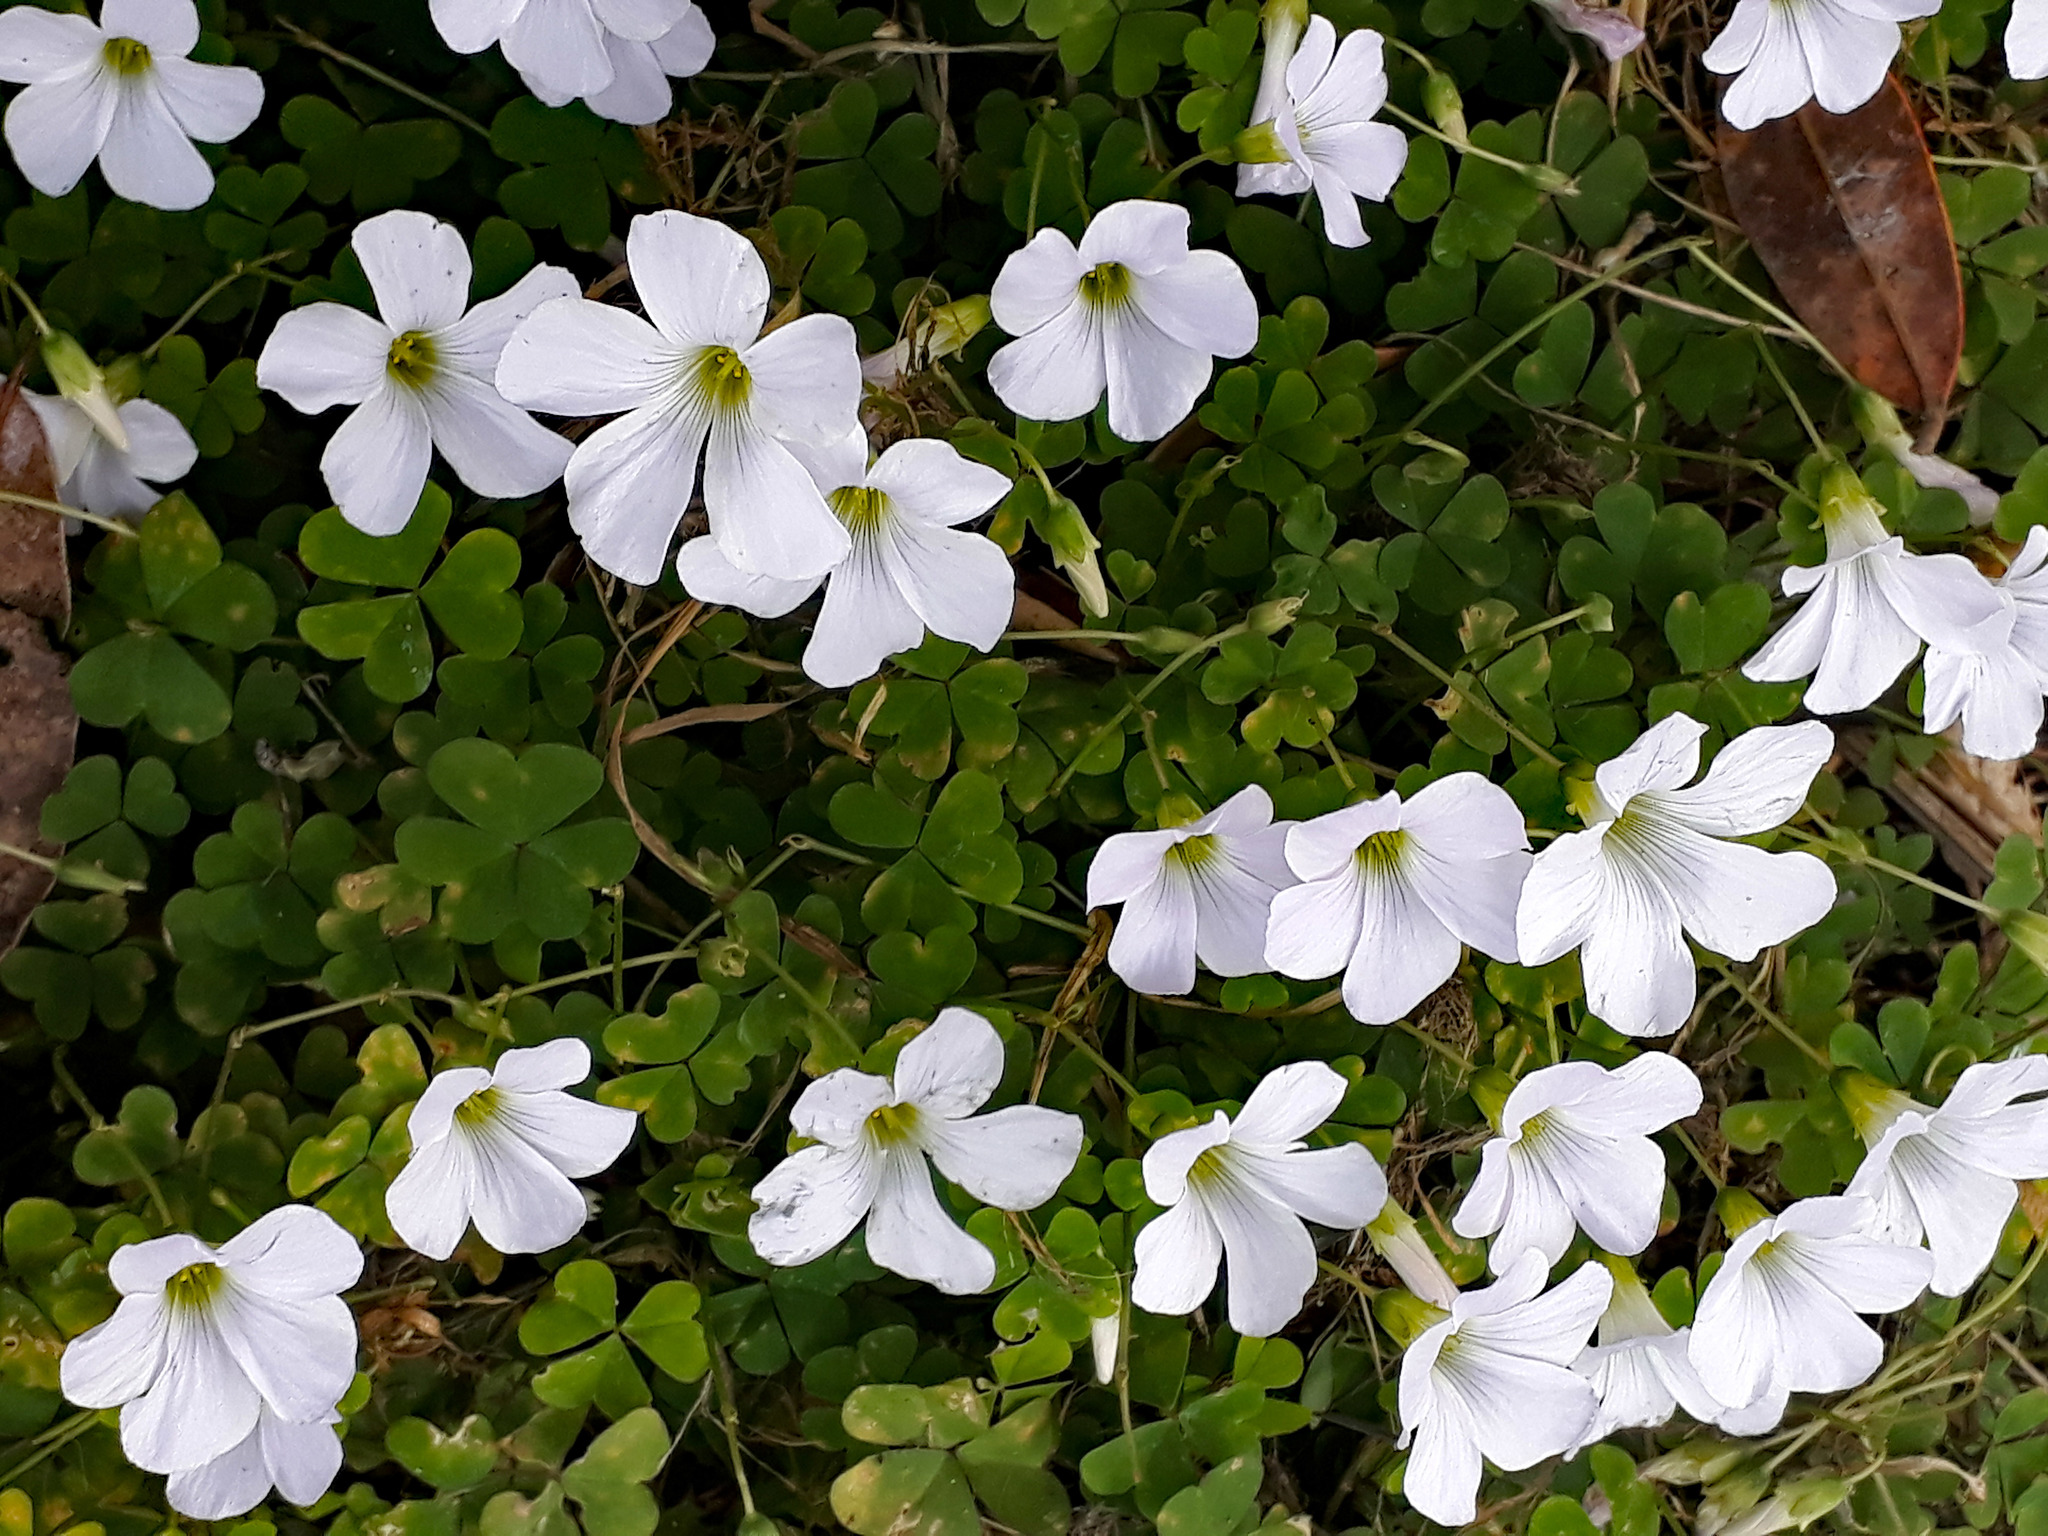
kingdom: Plantae
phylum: Tracheophyta
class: Magnoliopsida
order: Oxalidales
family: Oxalidaceae
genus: Oxalis
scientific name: Oxalis incarnata
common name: Pale pink-sorrel
